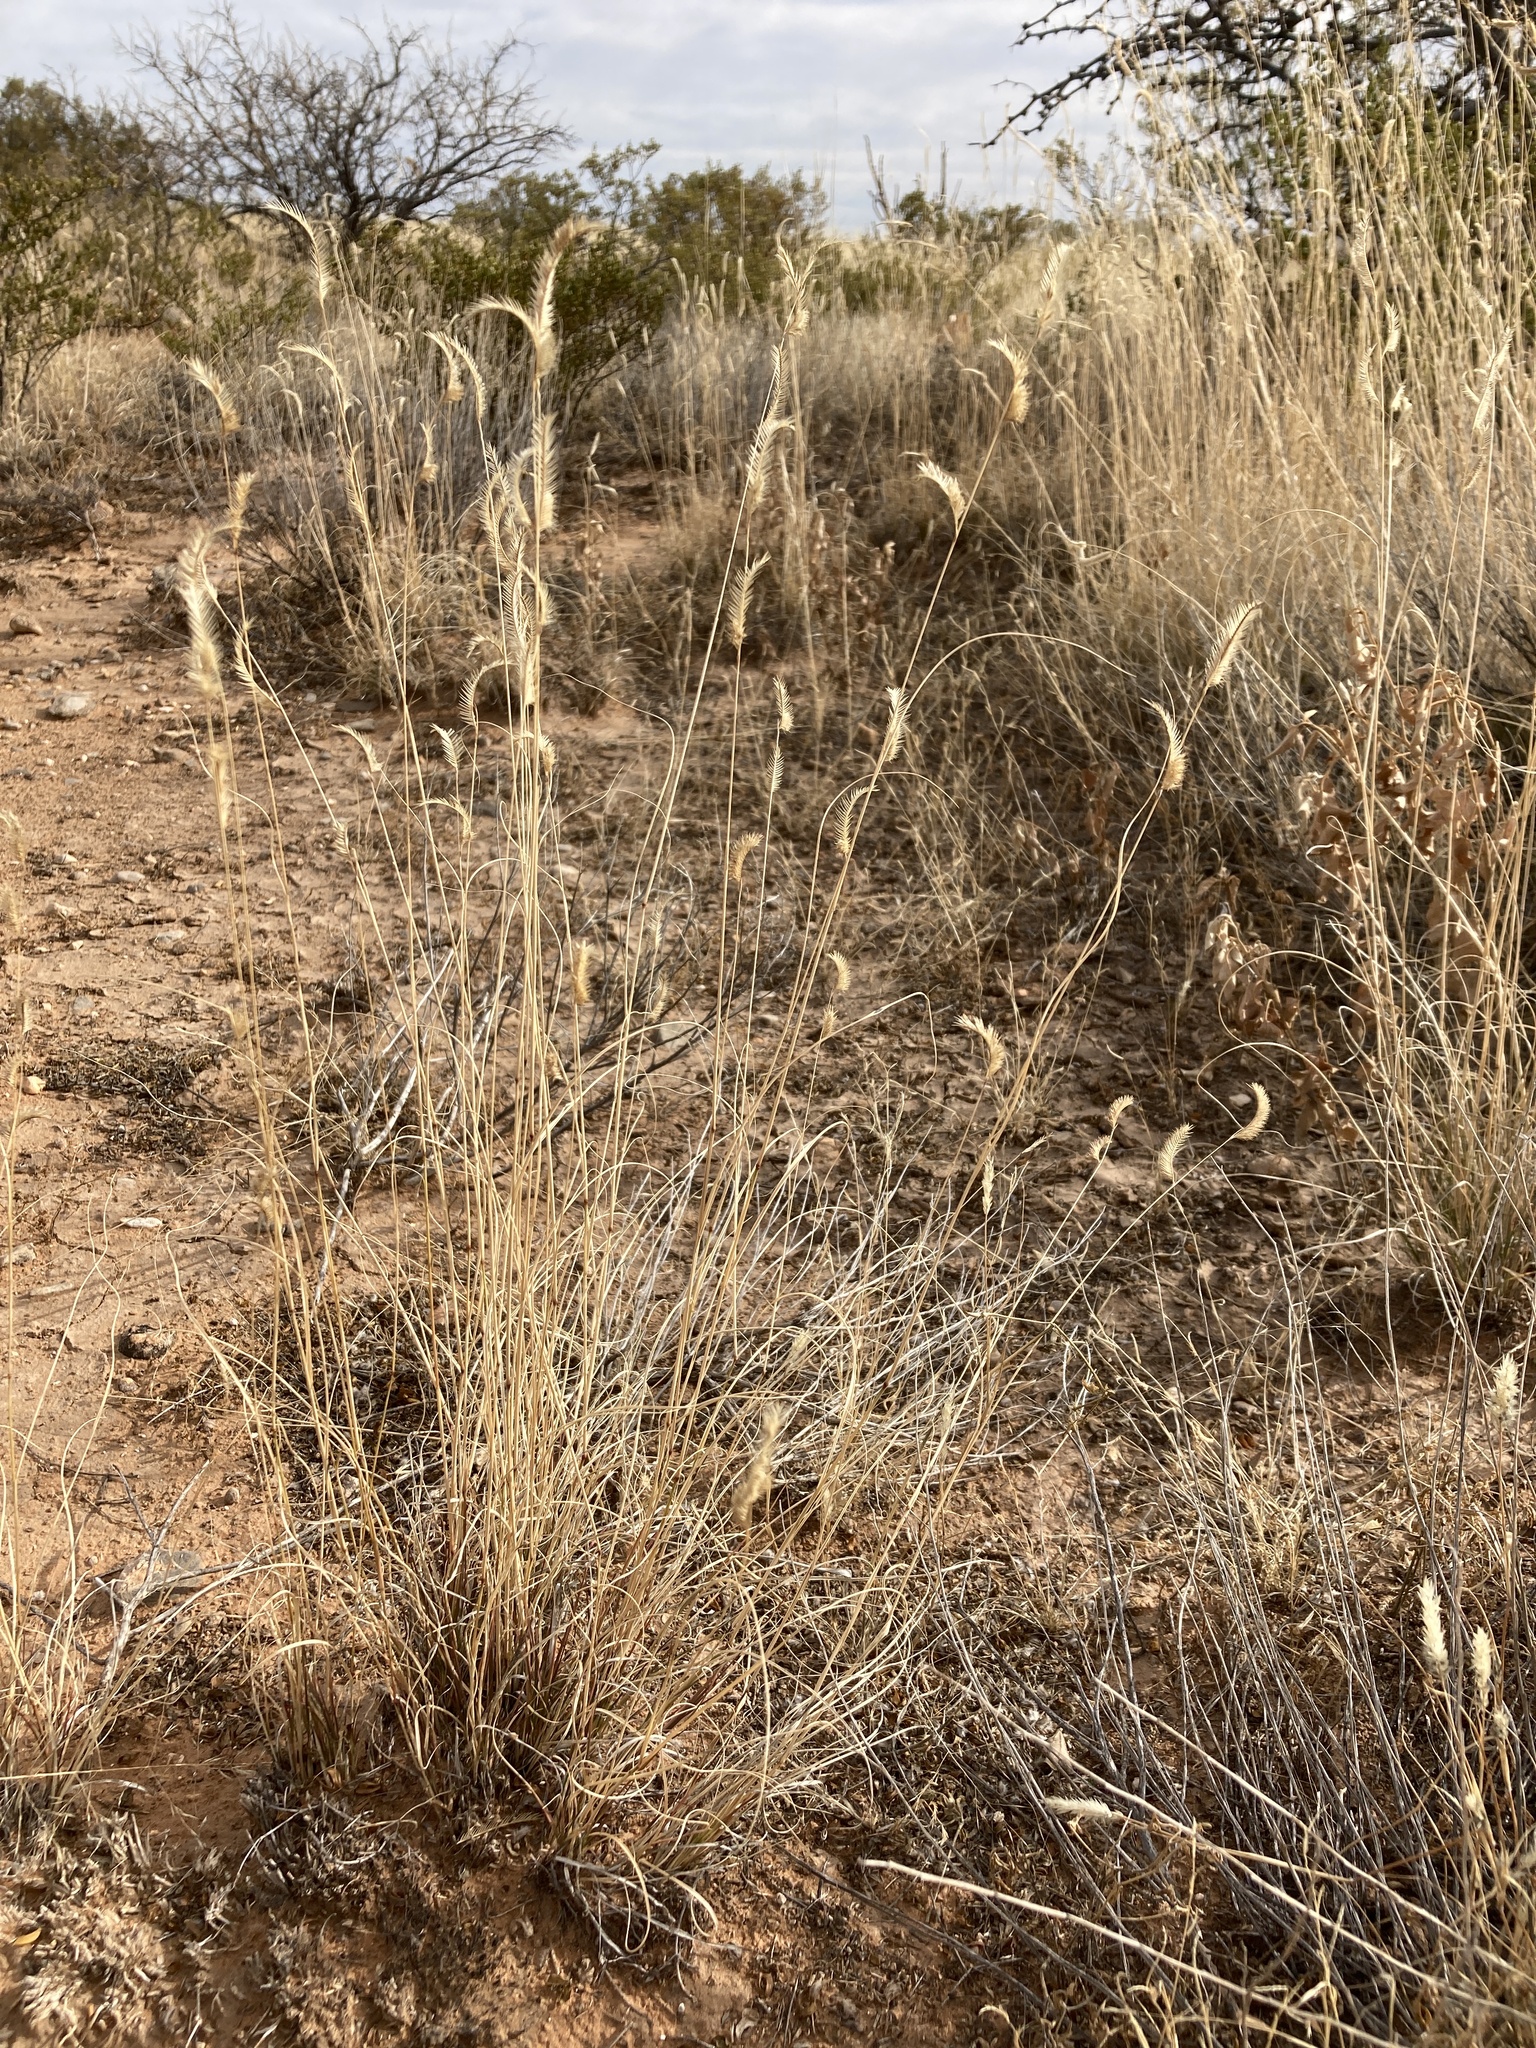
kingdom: Plantae
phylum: Tracheophyta
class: Liliopsida
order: Poales
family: Poaceae
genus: Bouteloua
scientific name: Bouteloua gracilis
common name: Blue grama
